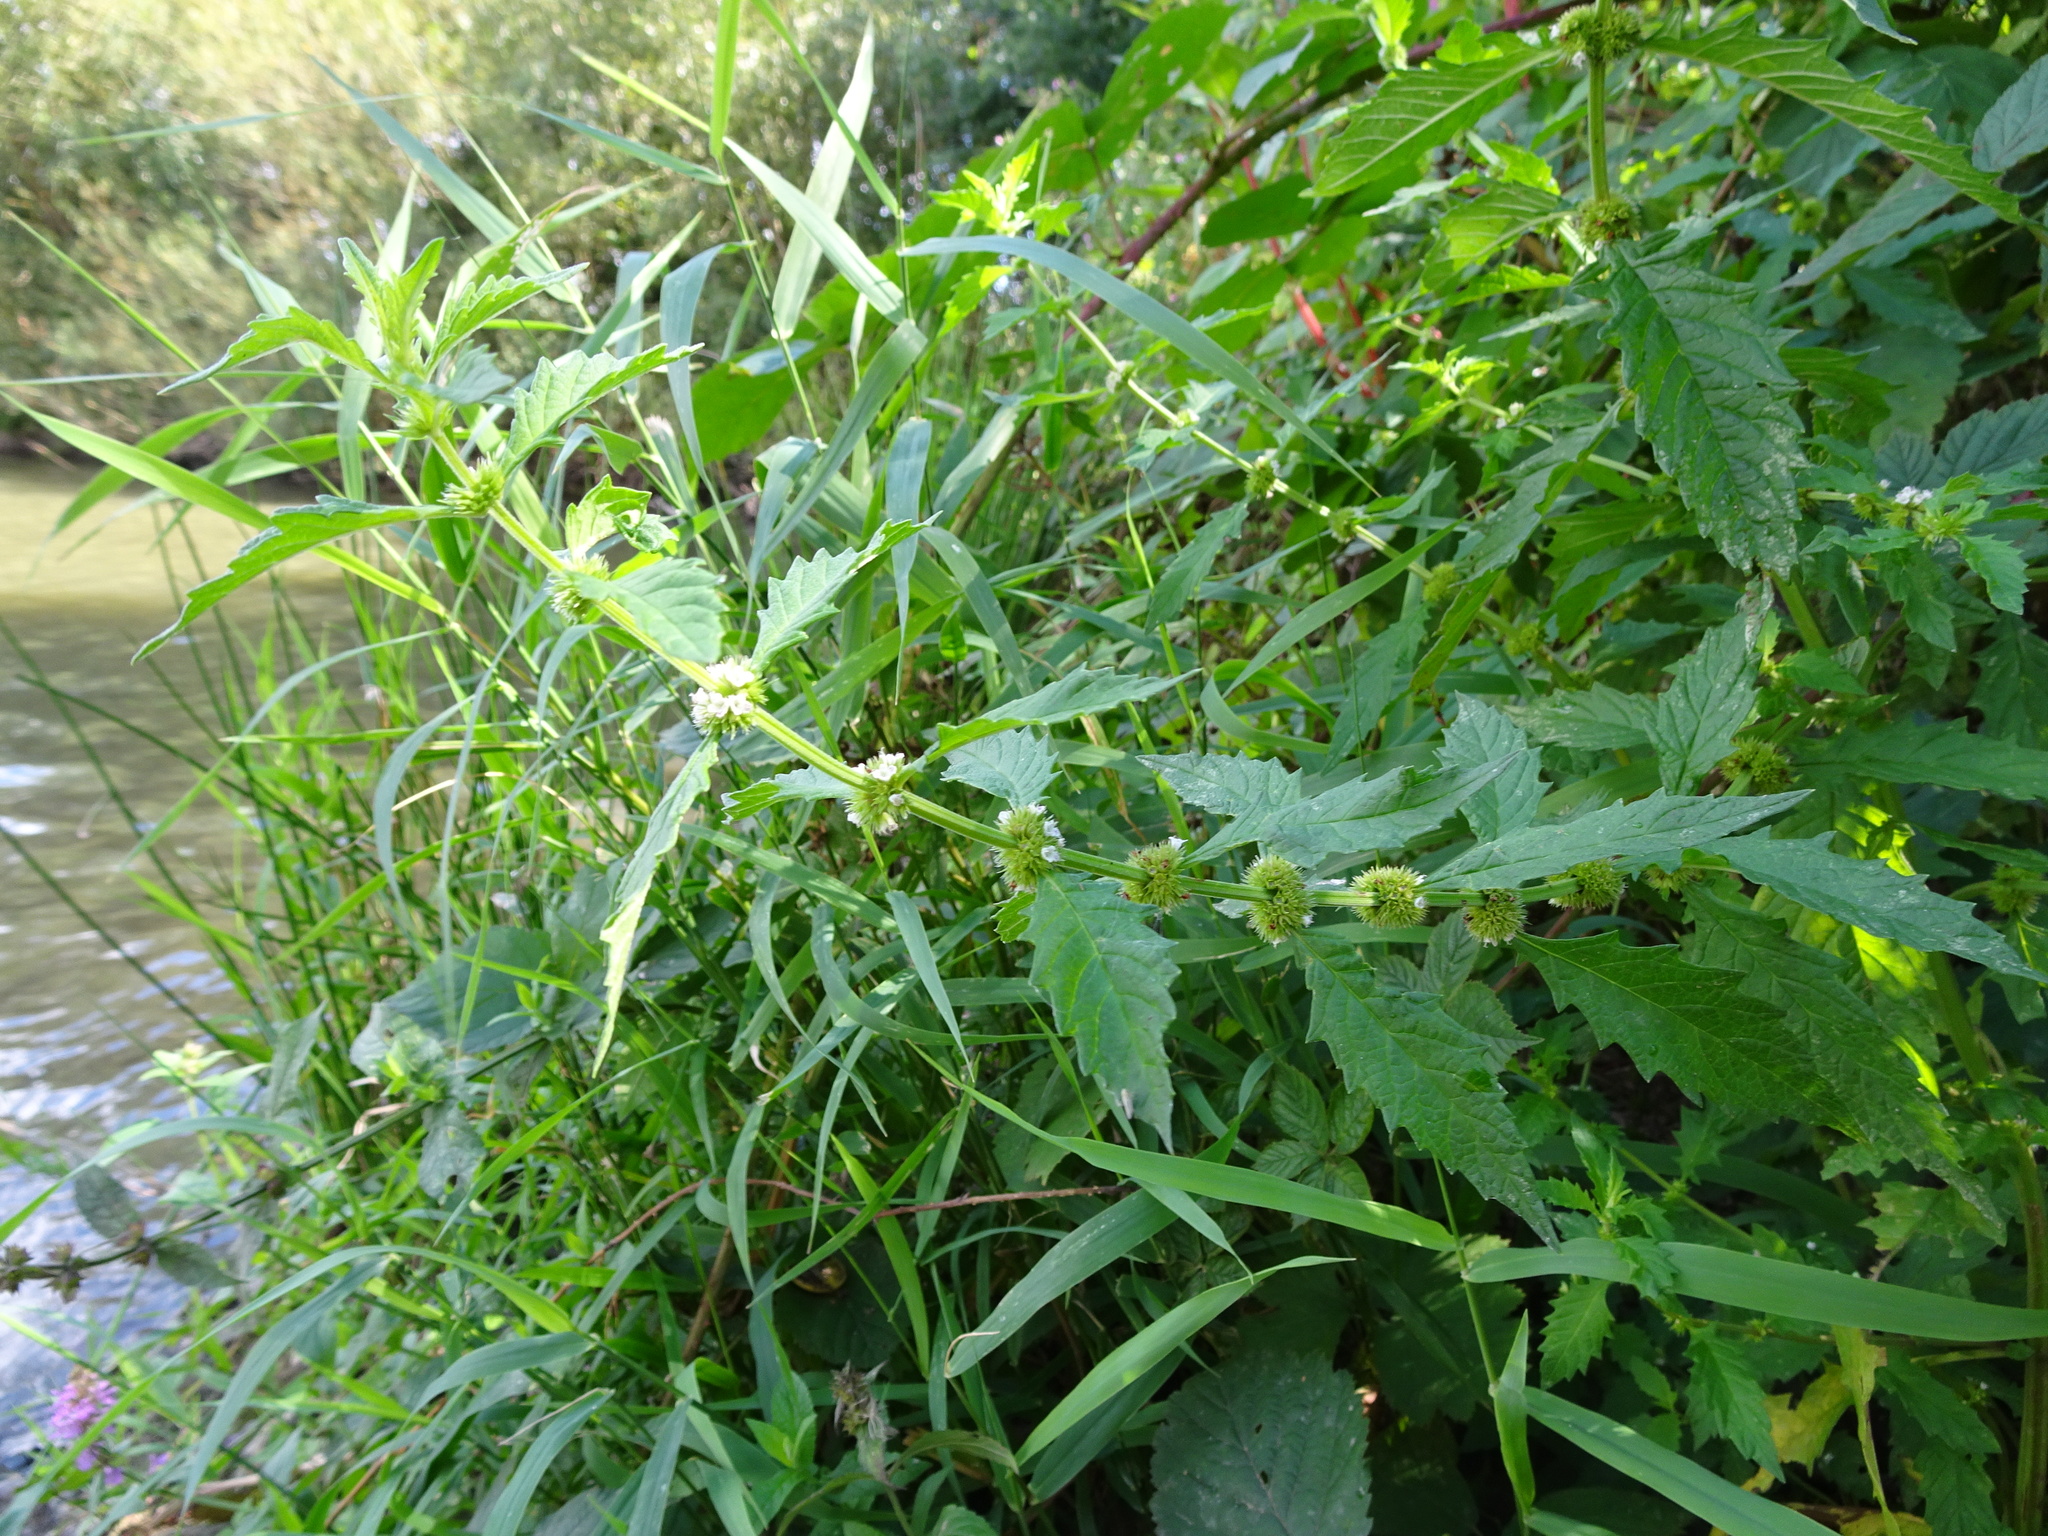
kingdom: Plantae
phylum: Tracheophyta
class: Magnoliopsida
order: Lamiales
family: Lamiaceae
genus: Lycopus
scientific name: Lycopus europaeus
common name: European bugleweed
